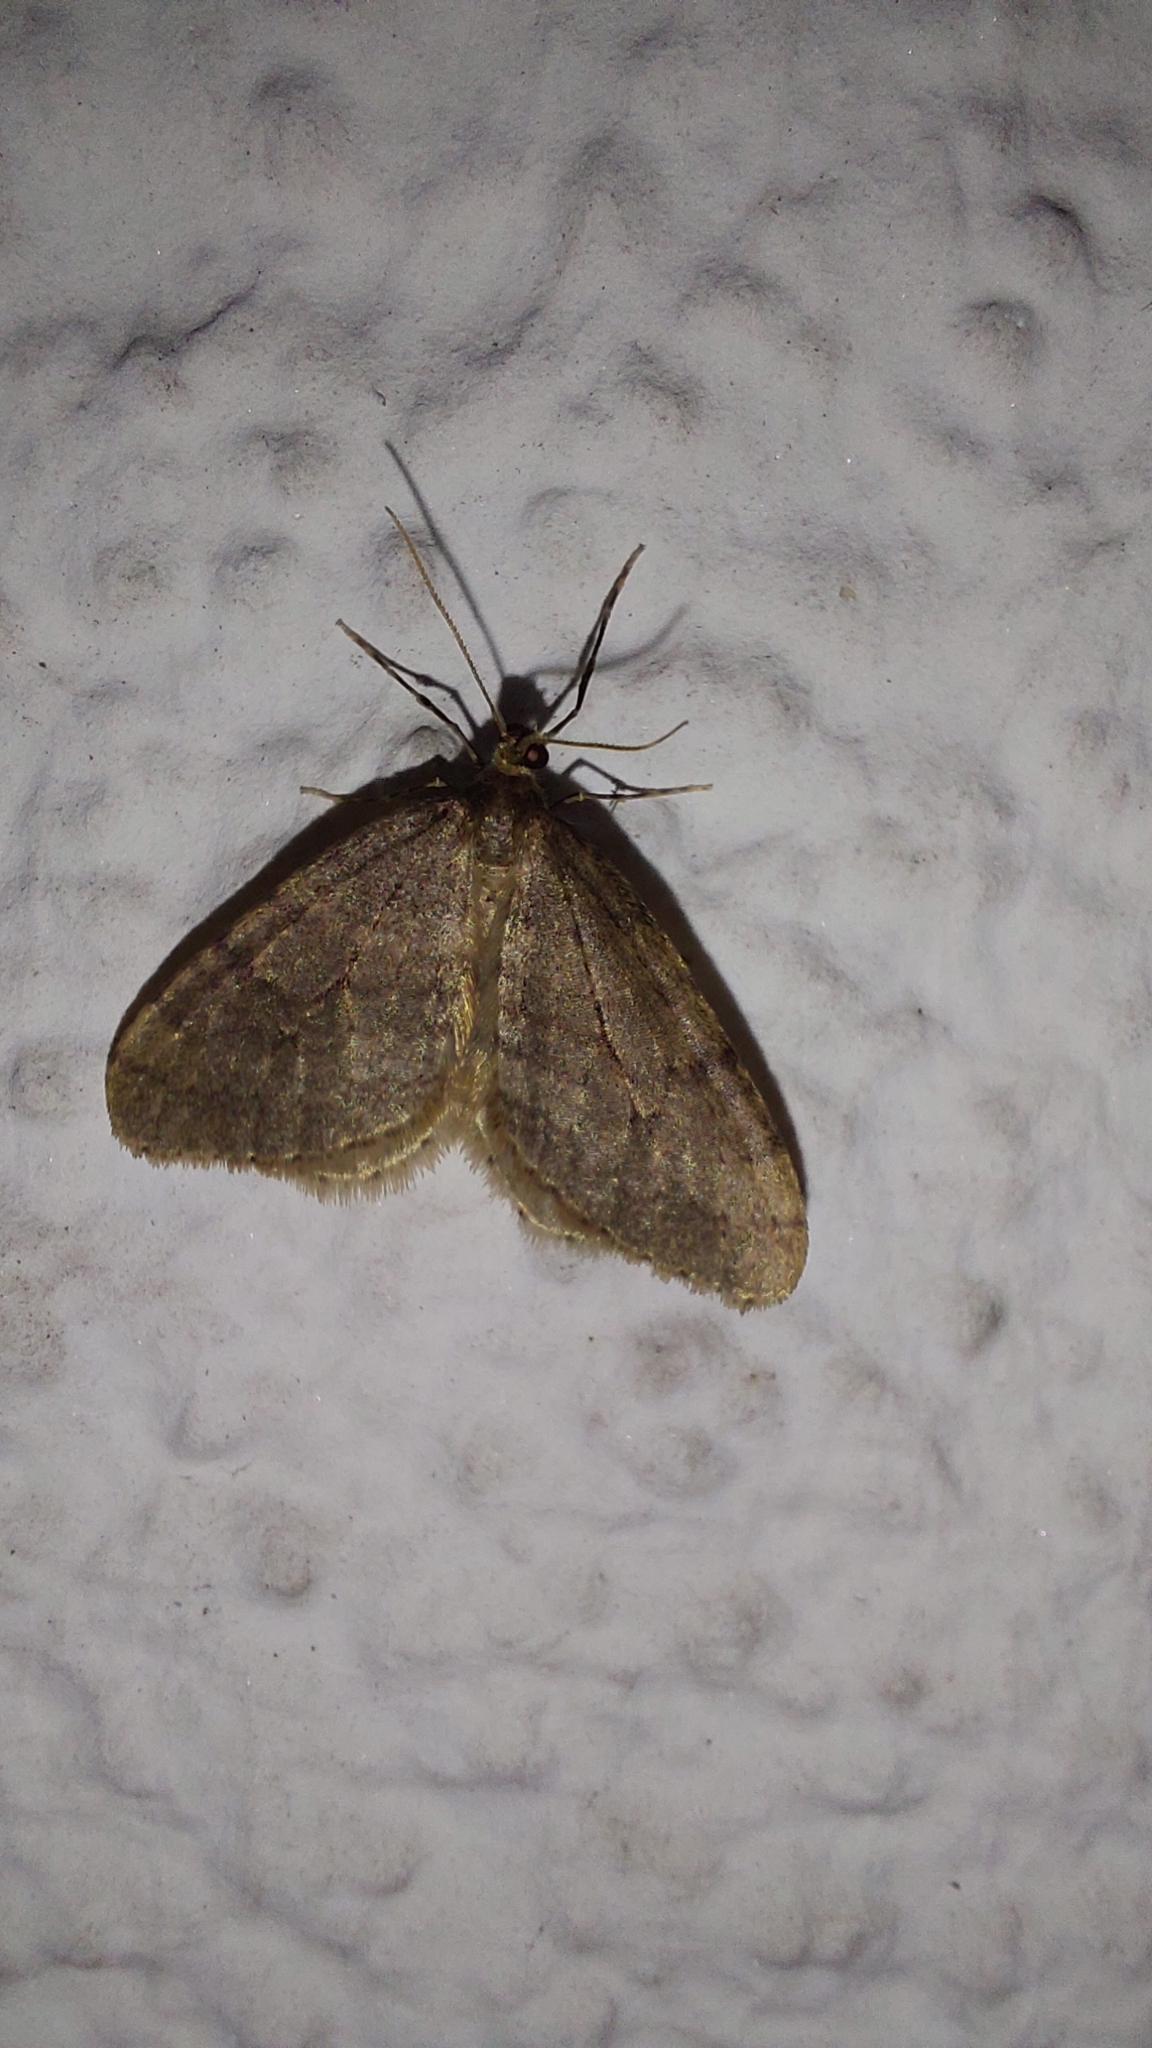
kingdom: Animalia
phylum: Arthropoda
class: Insecta
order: Lepidoptera
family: Geometridae
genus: Operophtera
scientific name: Operophtera brumata
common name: Winter moth
